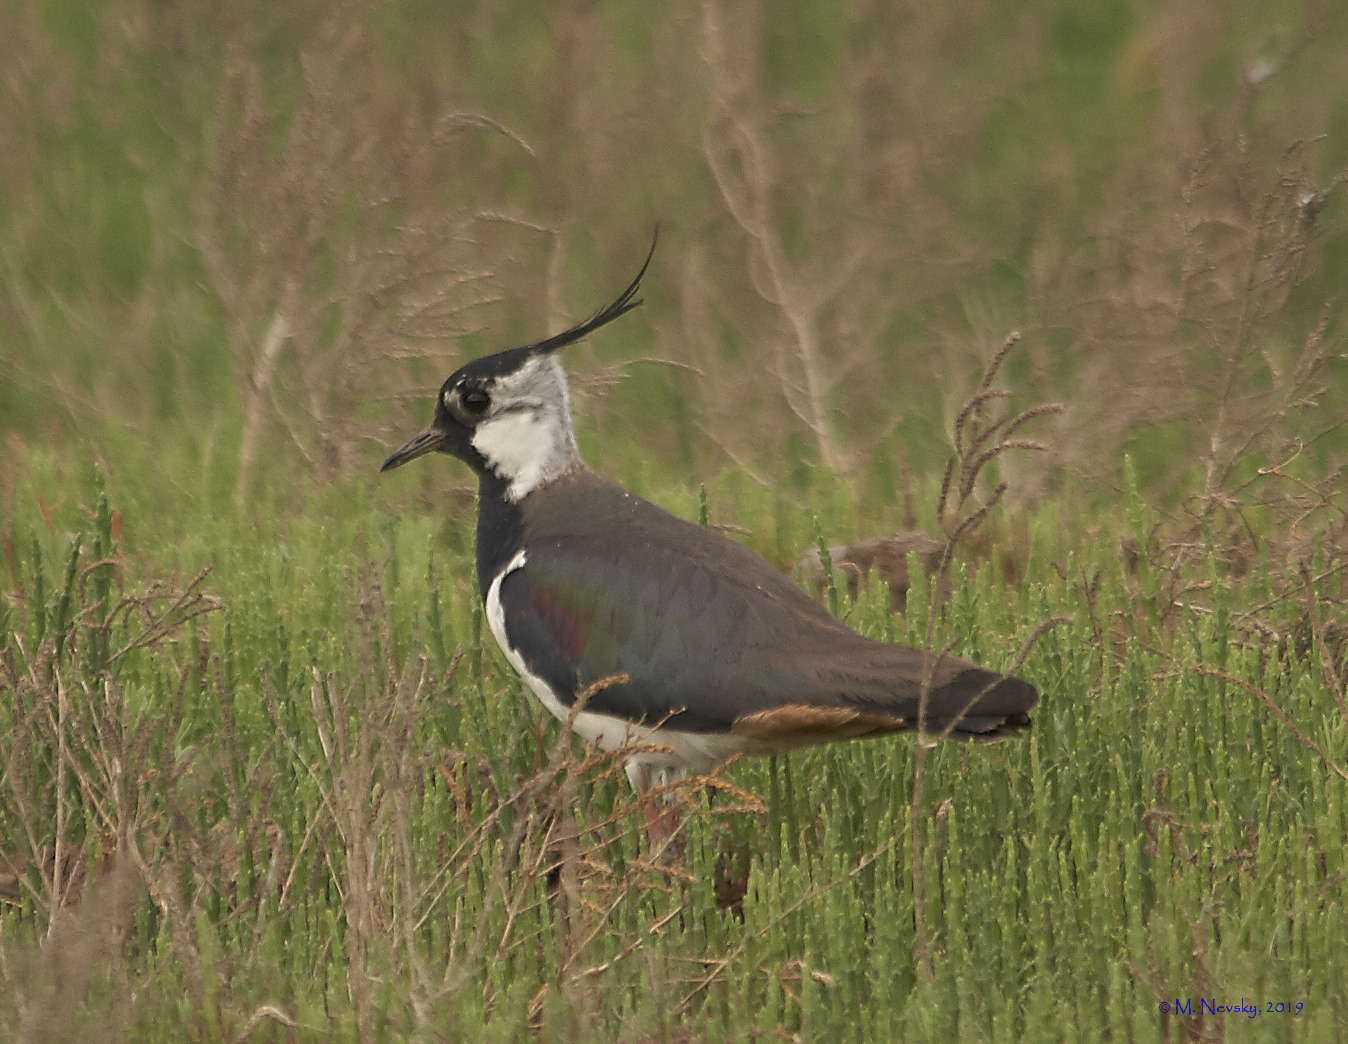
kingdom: Animalia
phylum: Chordata
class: Aves
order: Charadriiformes
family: Charadriidae
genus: Vanellus
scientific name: Vanellus vanellus
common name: Northern lapwing
